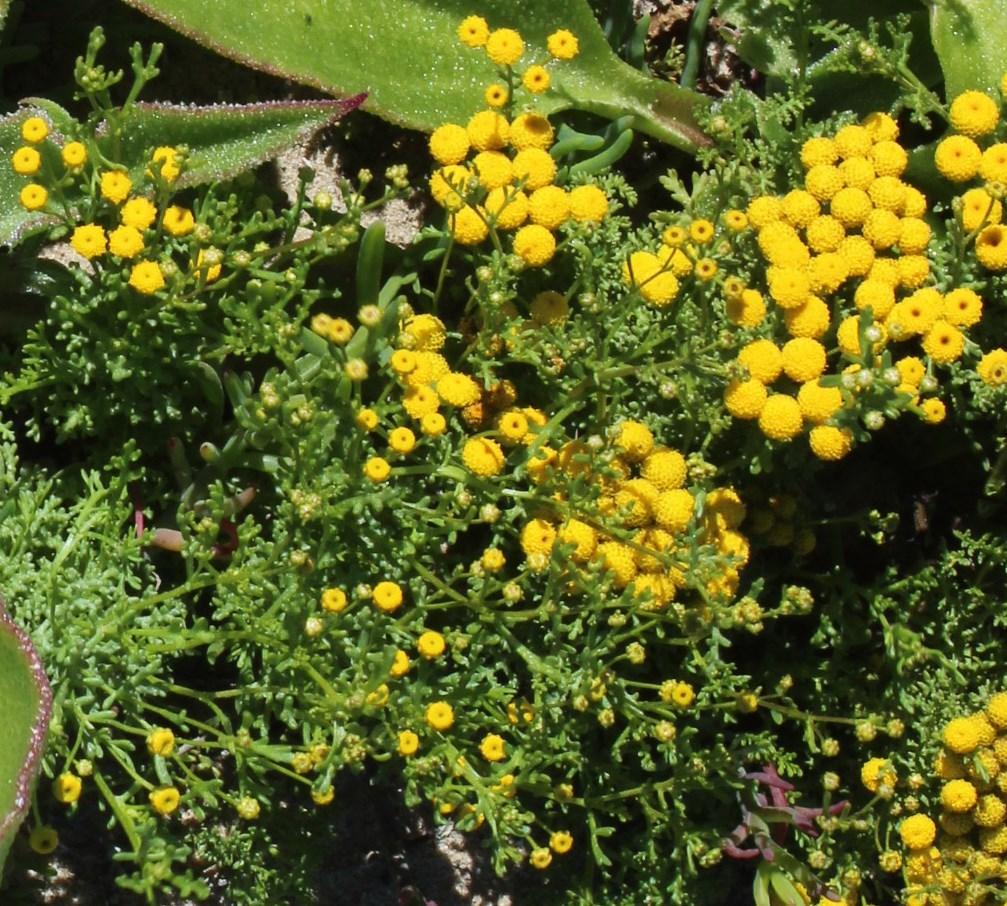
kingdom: Plantae
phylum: Tracheophyta
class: Magnoliopsida
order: Asterales
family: Asteraceae
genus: Oncosiphon
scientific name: Oncosiphon suffruticosus
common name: Shrubby mayweed
